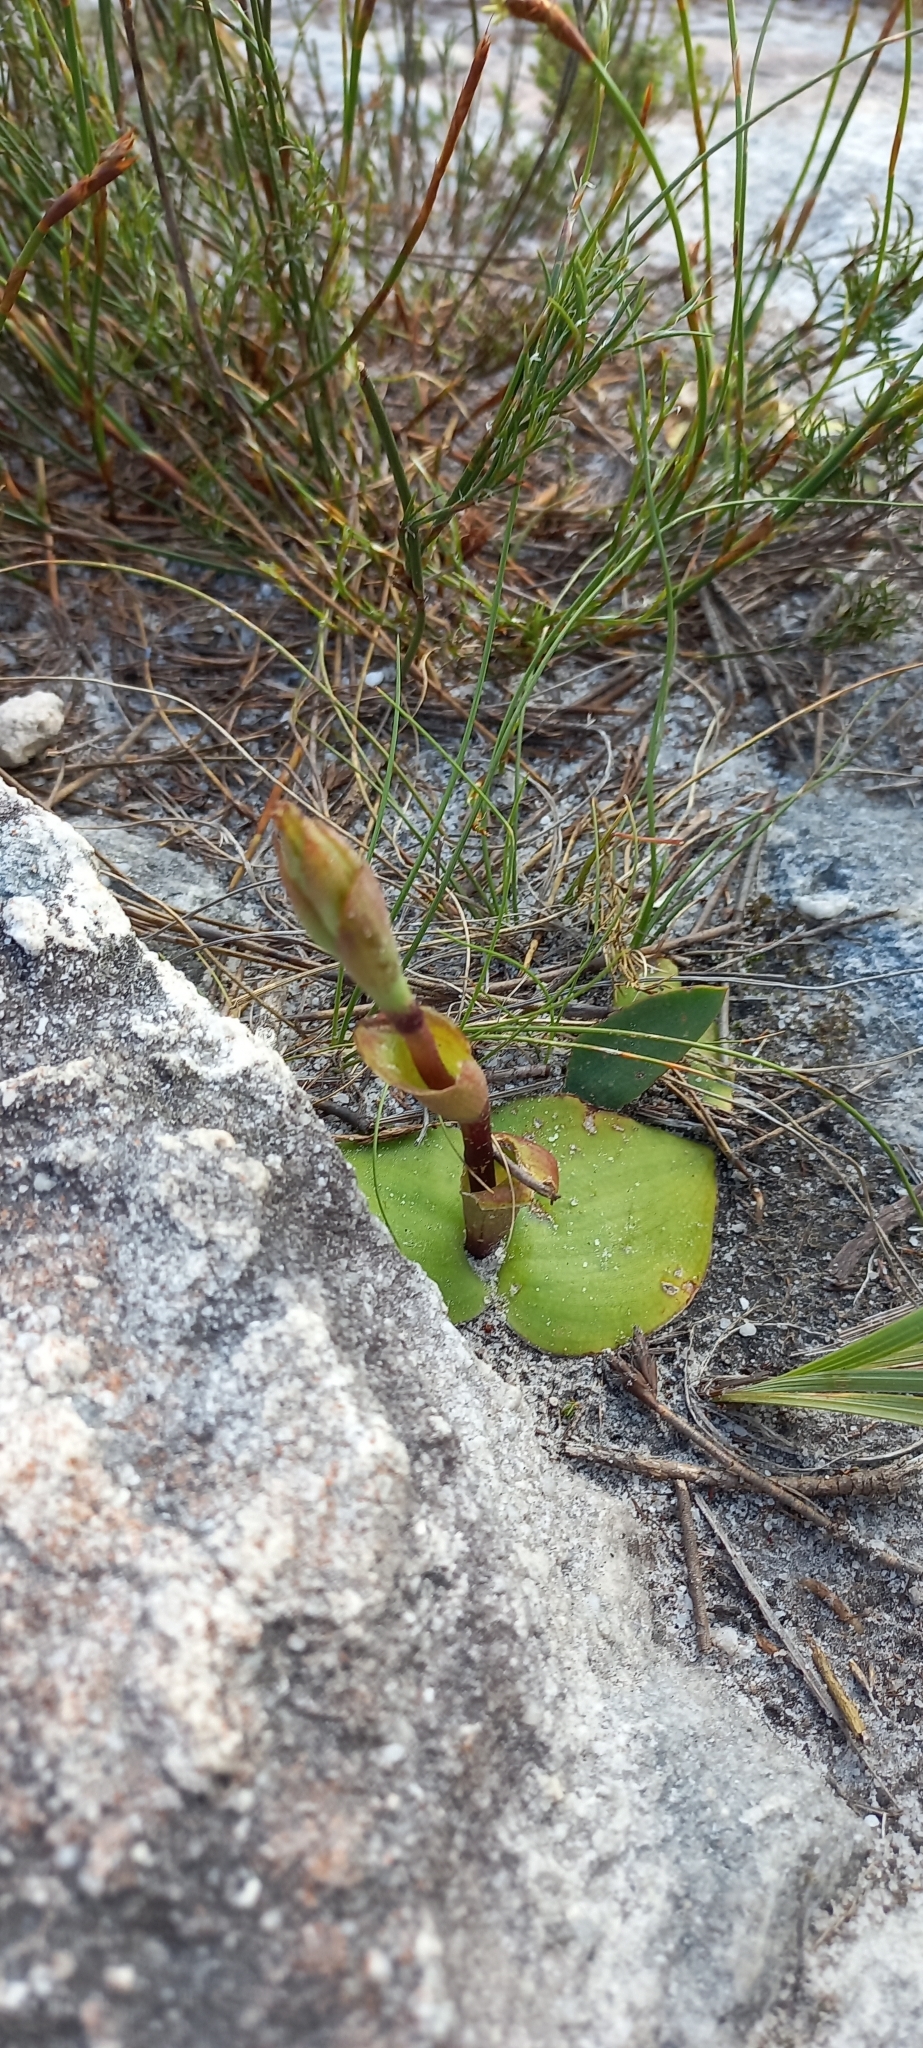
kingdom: Plantae
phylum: Tracheophyta
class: Liliopsida
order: Asparagales
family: Orchidaceae
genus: Satyrium
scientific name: Satyrium bicorne
